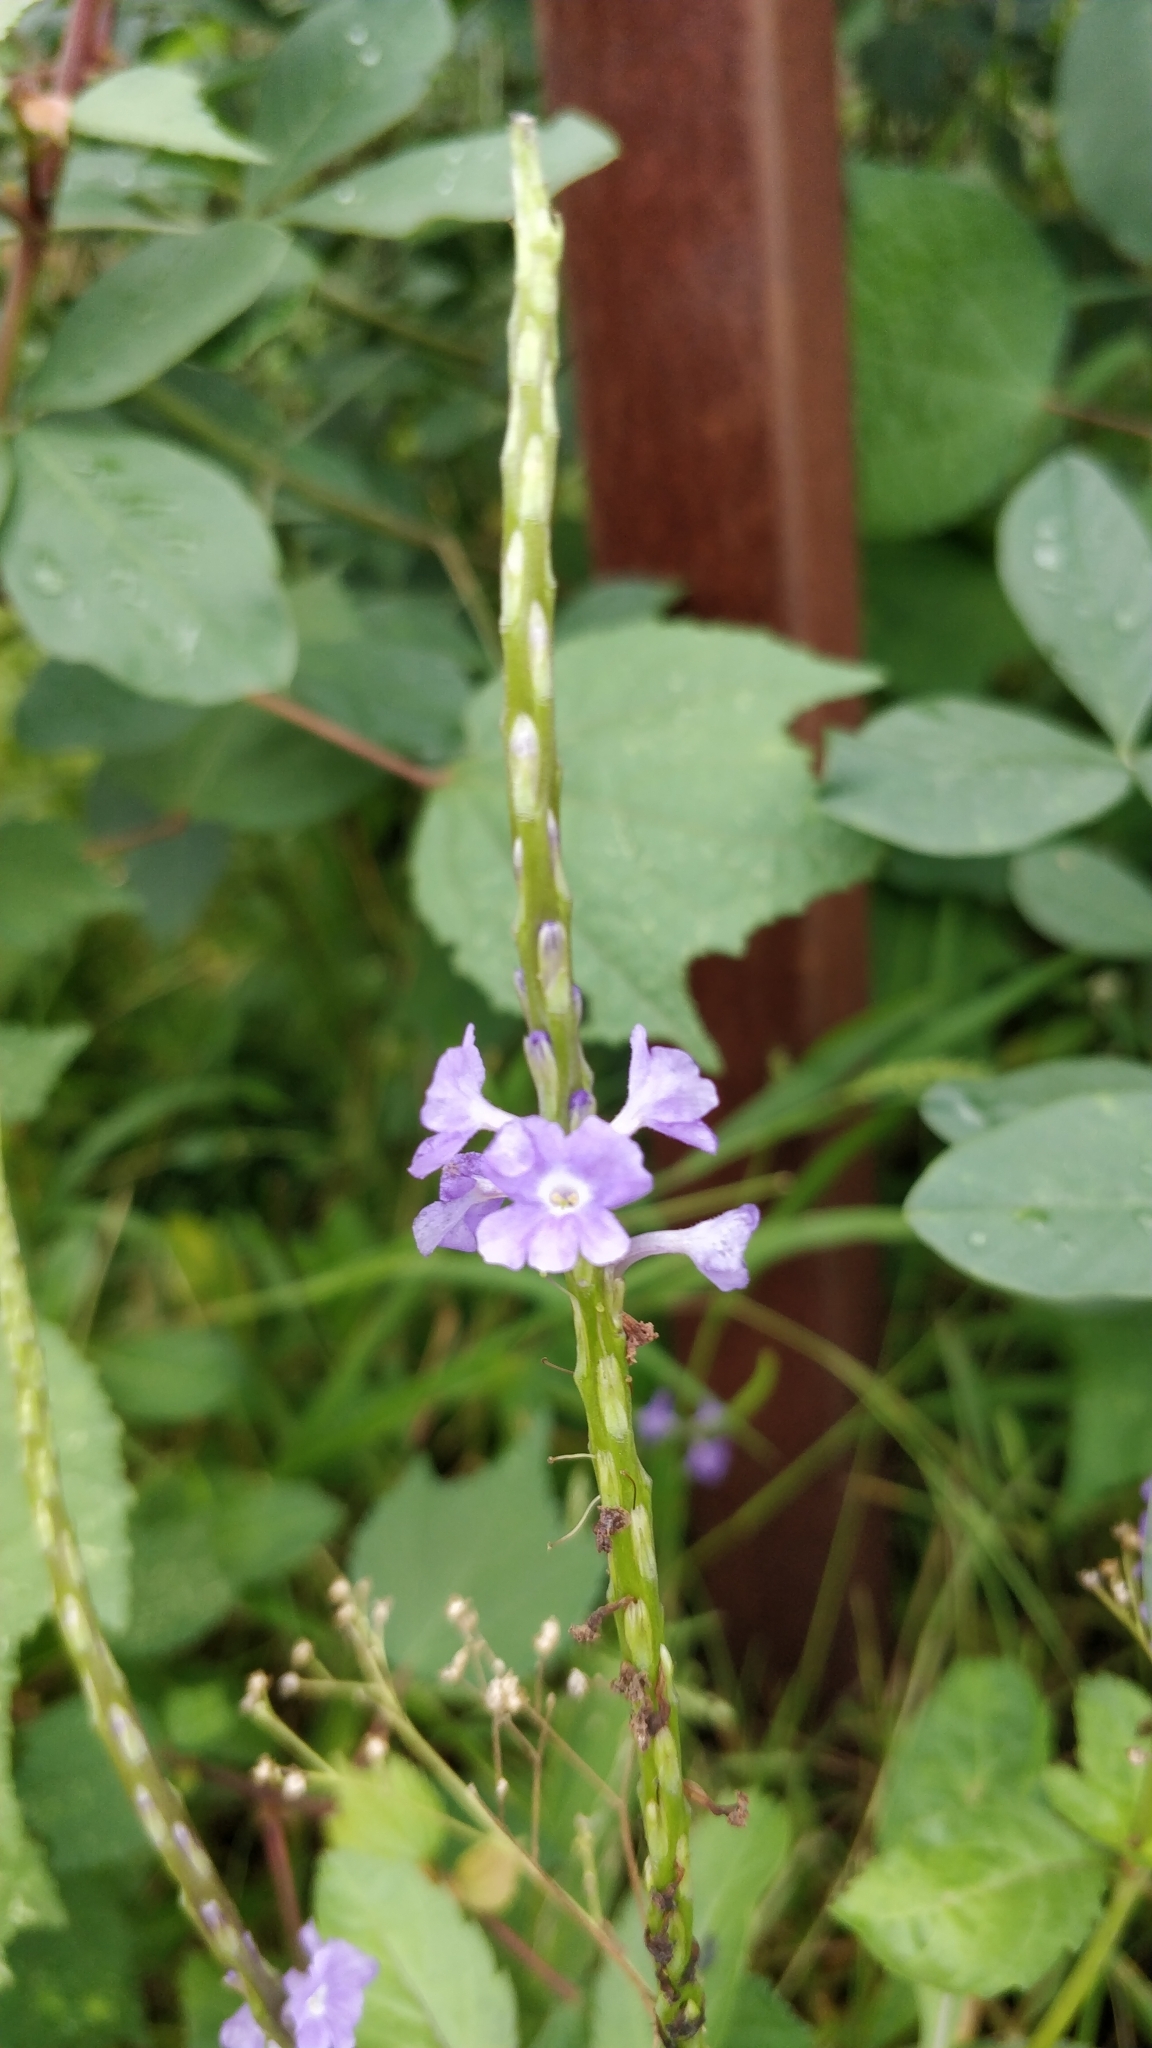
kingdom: Plantae
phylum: Tracheophyta
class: Magnoliopsida
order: Lamiales
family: Verbenaceae
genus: Stachytarpheta
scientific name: Stachytarpheta jamaicensis
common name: Light-blue snakeweed
